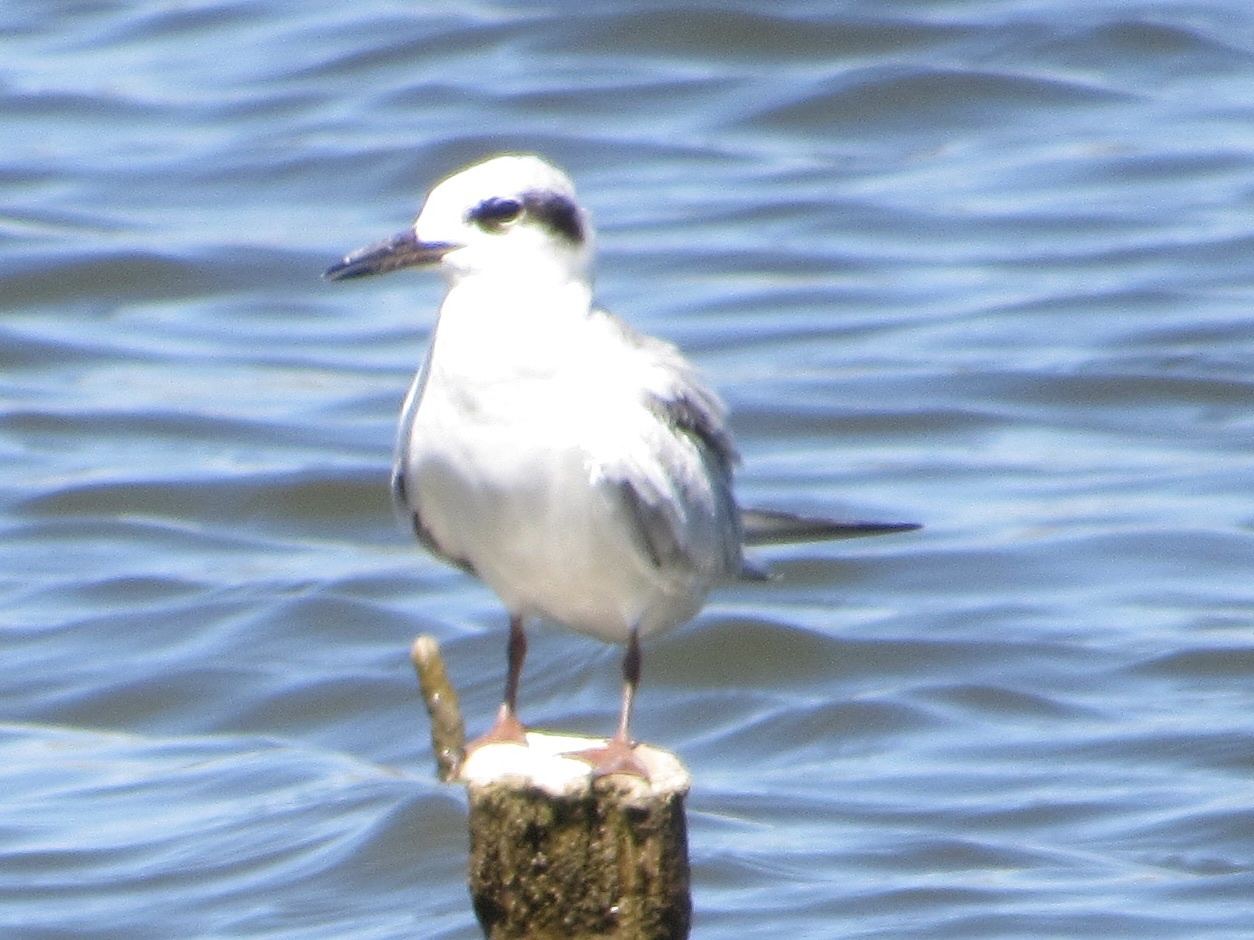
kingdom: Animalia
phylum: Chordata
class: Aves
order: Charadriiformes
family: Laridae
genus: Sterna
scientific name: Sterna forsteri
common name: Forster's tern
